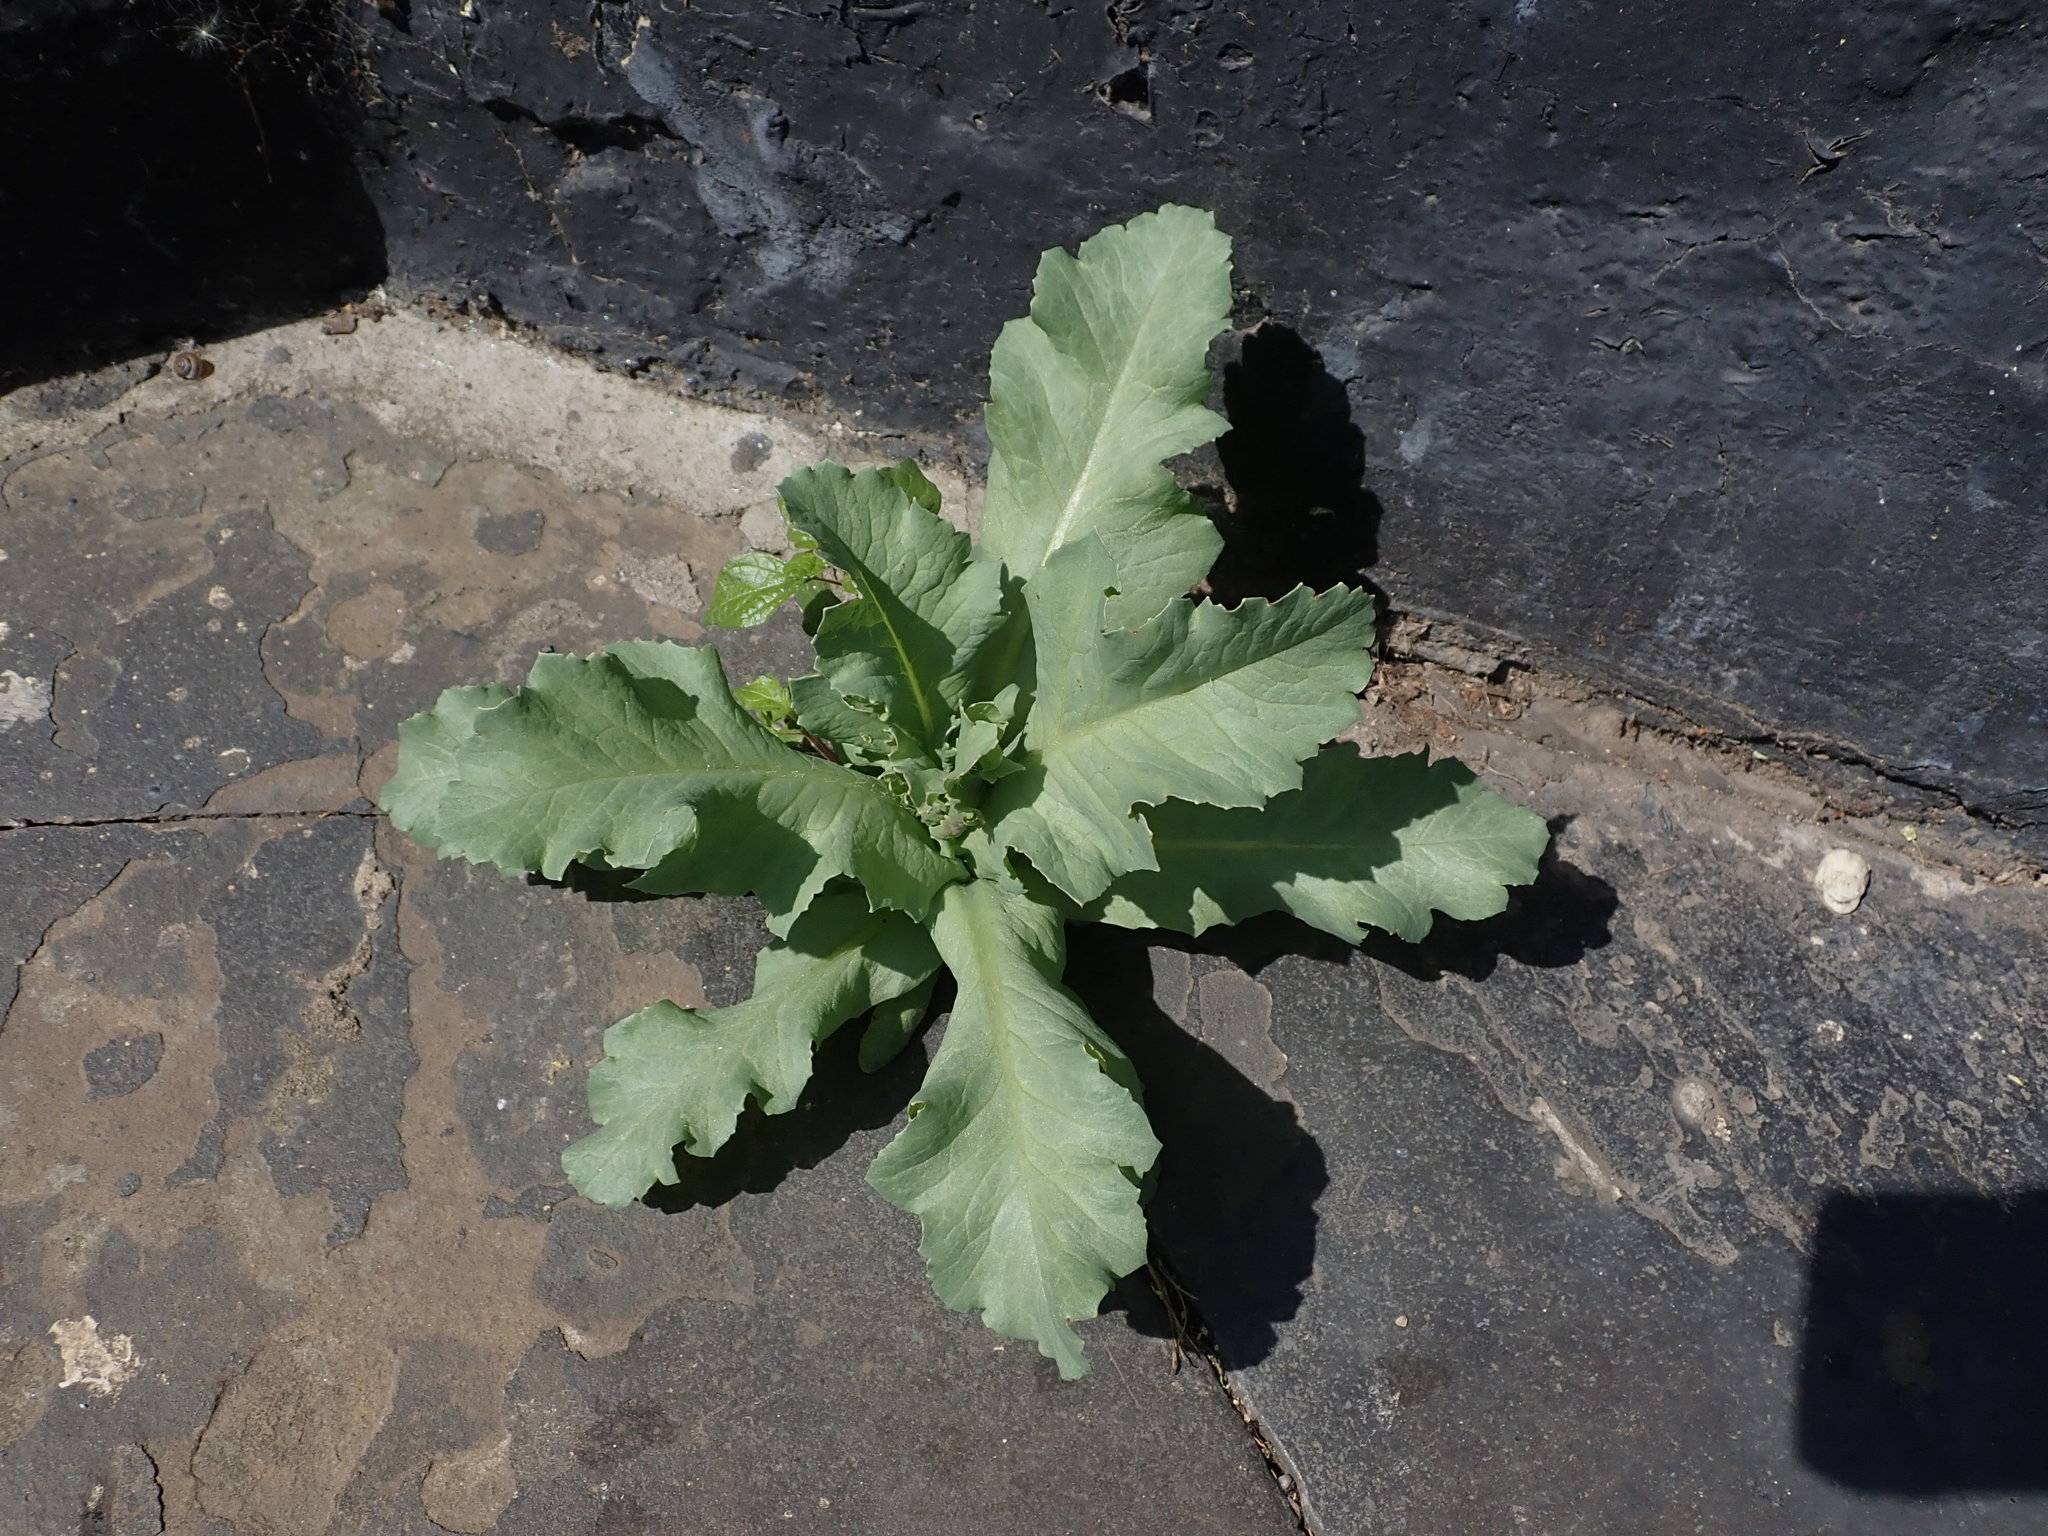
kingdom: Plantae
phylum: Tracheophyta
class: Magnoliopsida
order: Ranunculales
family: Papaveraceae
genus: Papaver
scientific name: Papaver somniferum
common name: Opium poppy
